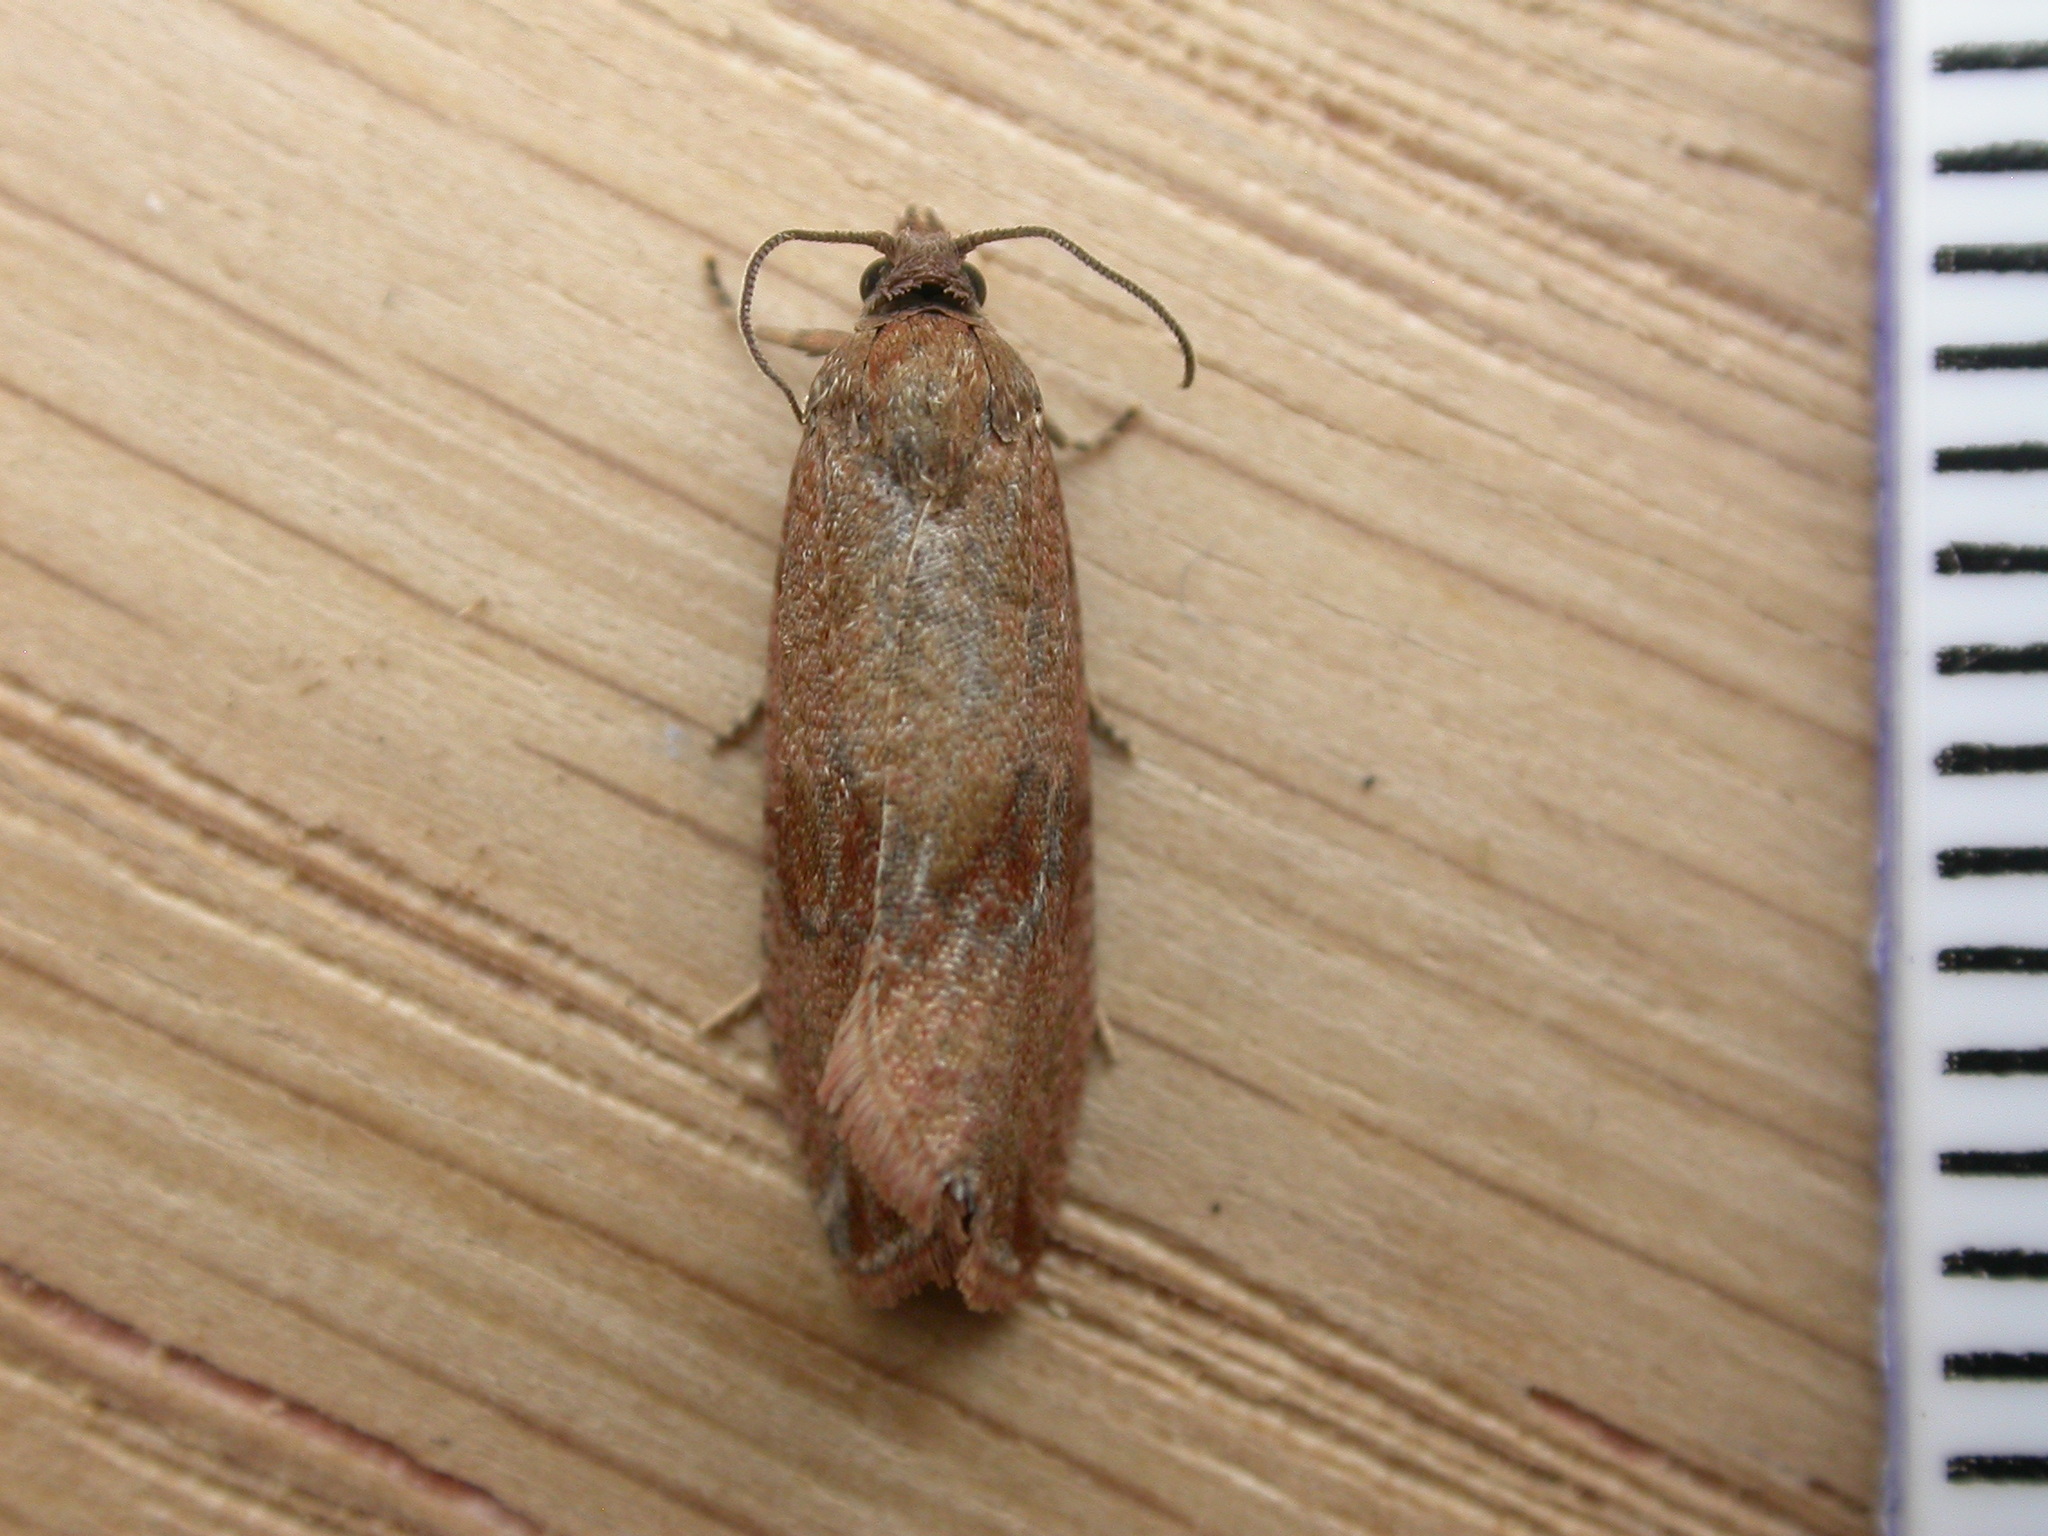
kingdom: Animalia
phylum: Arthropoda
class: Insecta
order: Lepidoptera
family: Tortricidae
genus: Celypha
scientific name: Celypha striana
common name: Barred marble
